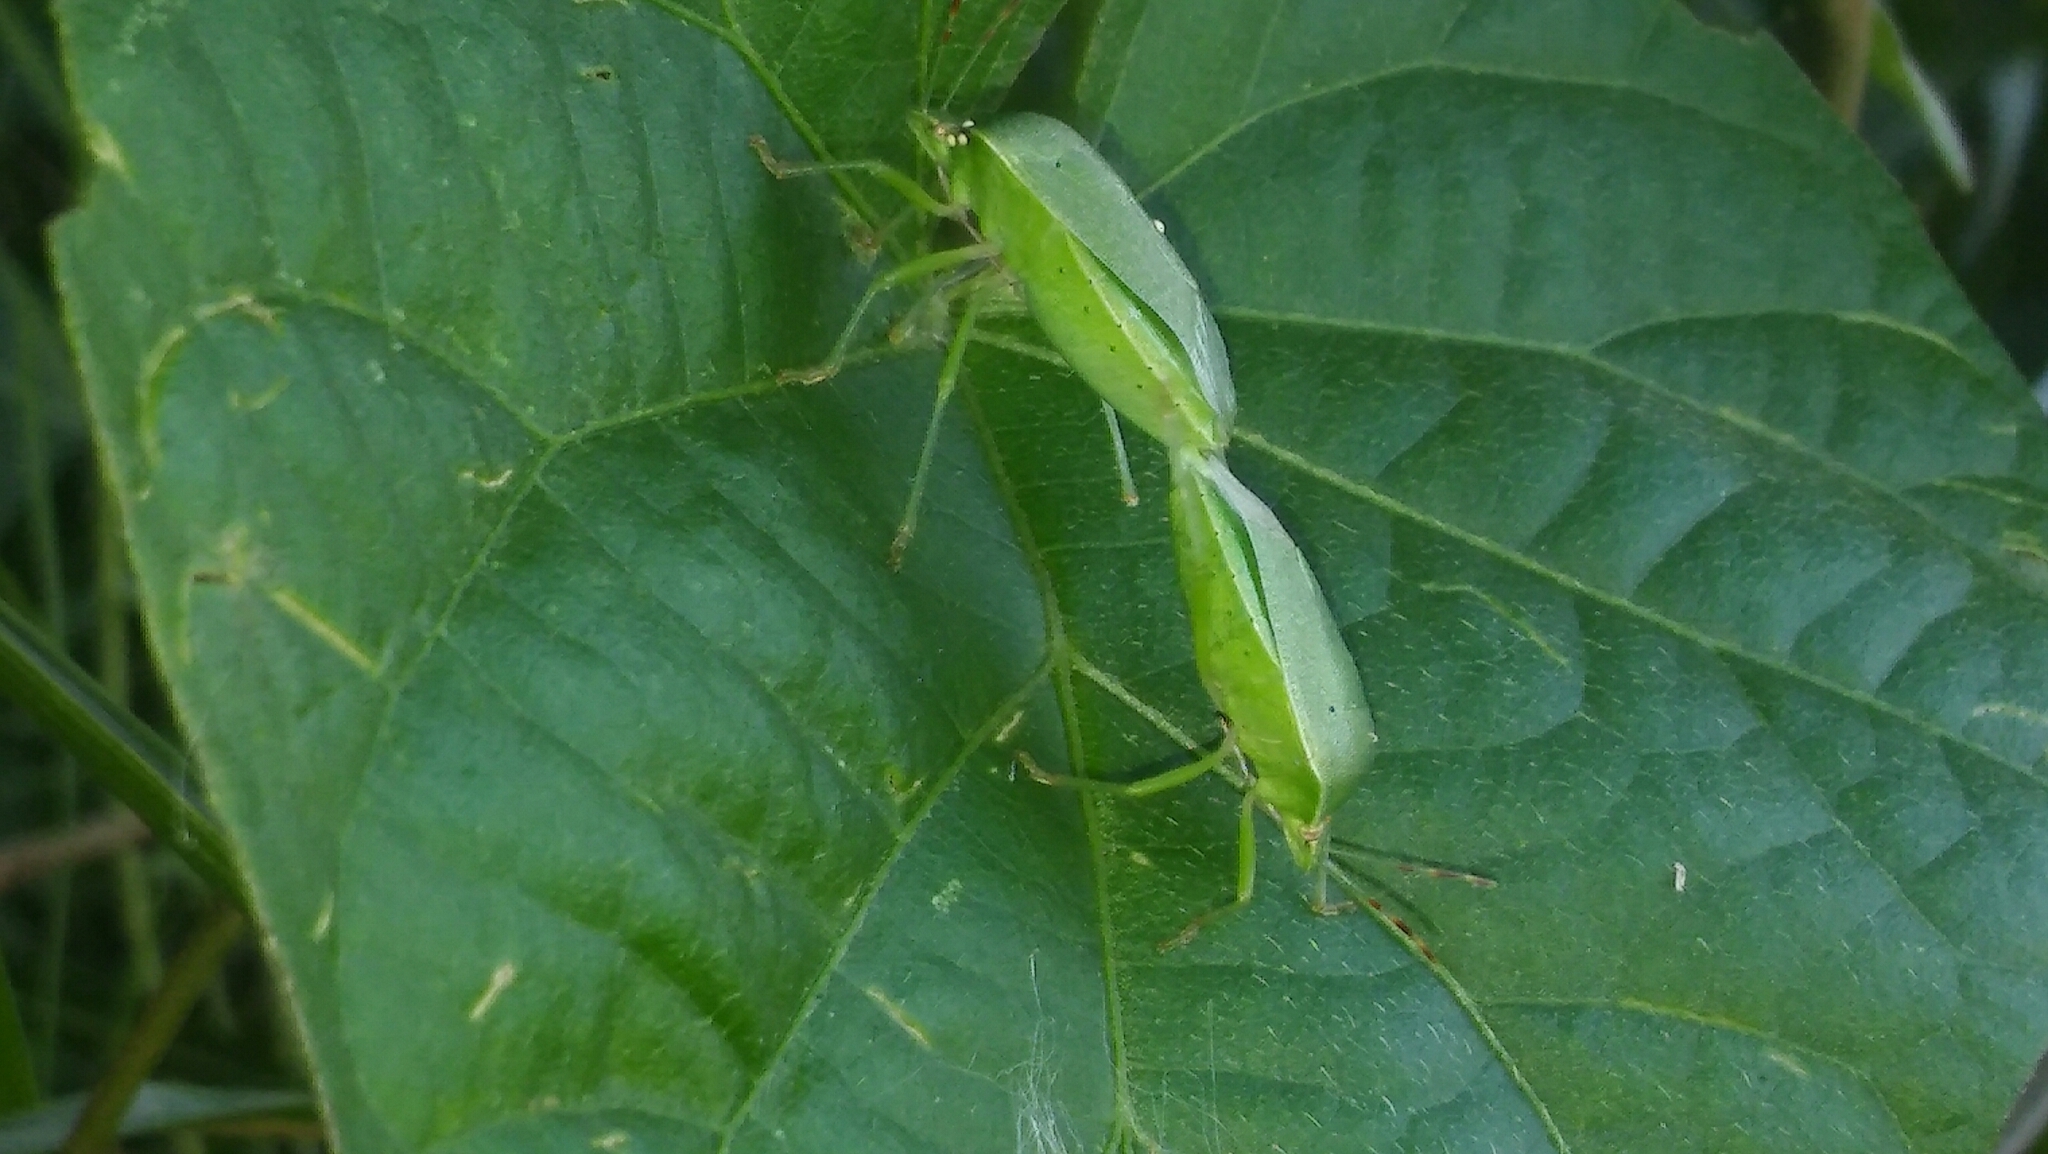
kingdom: Animalia
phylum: Arthropoda
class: Insecta
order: Hemiptera
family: Pentatomidae
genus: Nezara
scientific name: Nezara viridula
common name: Southern green stink bug
